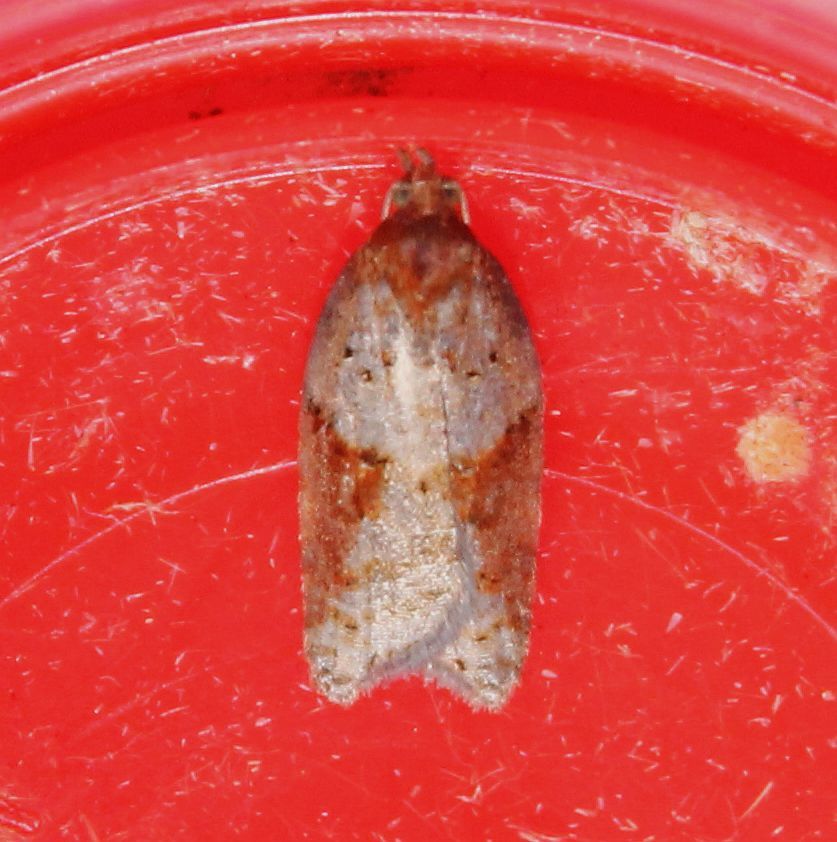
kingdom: Animalia
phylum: Arthropoda
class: Insecta
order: Lepidoptera
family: Tortricidae
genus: Acleris
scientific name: Acleris laterana
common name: Dark-triangle button
